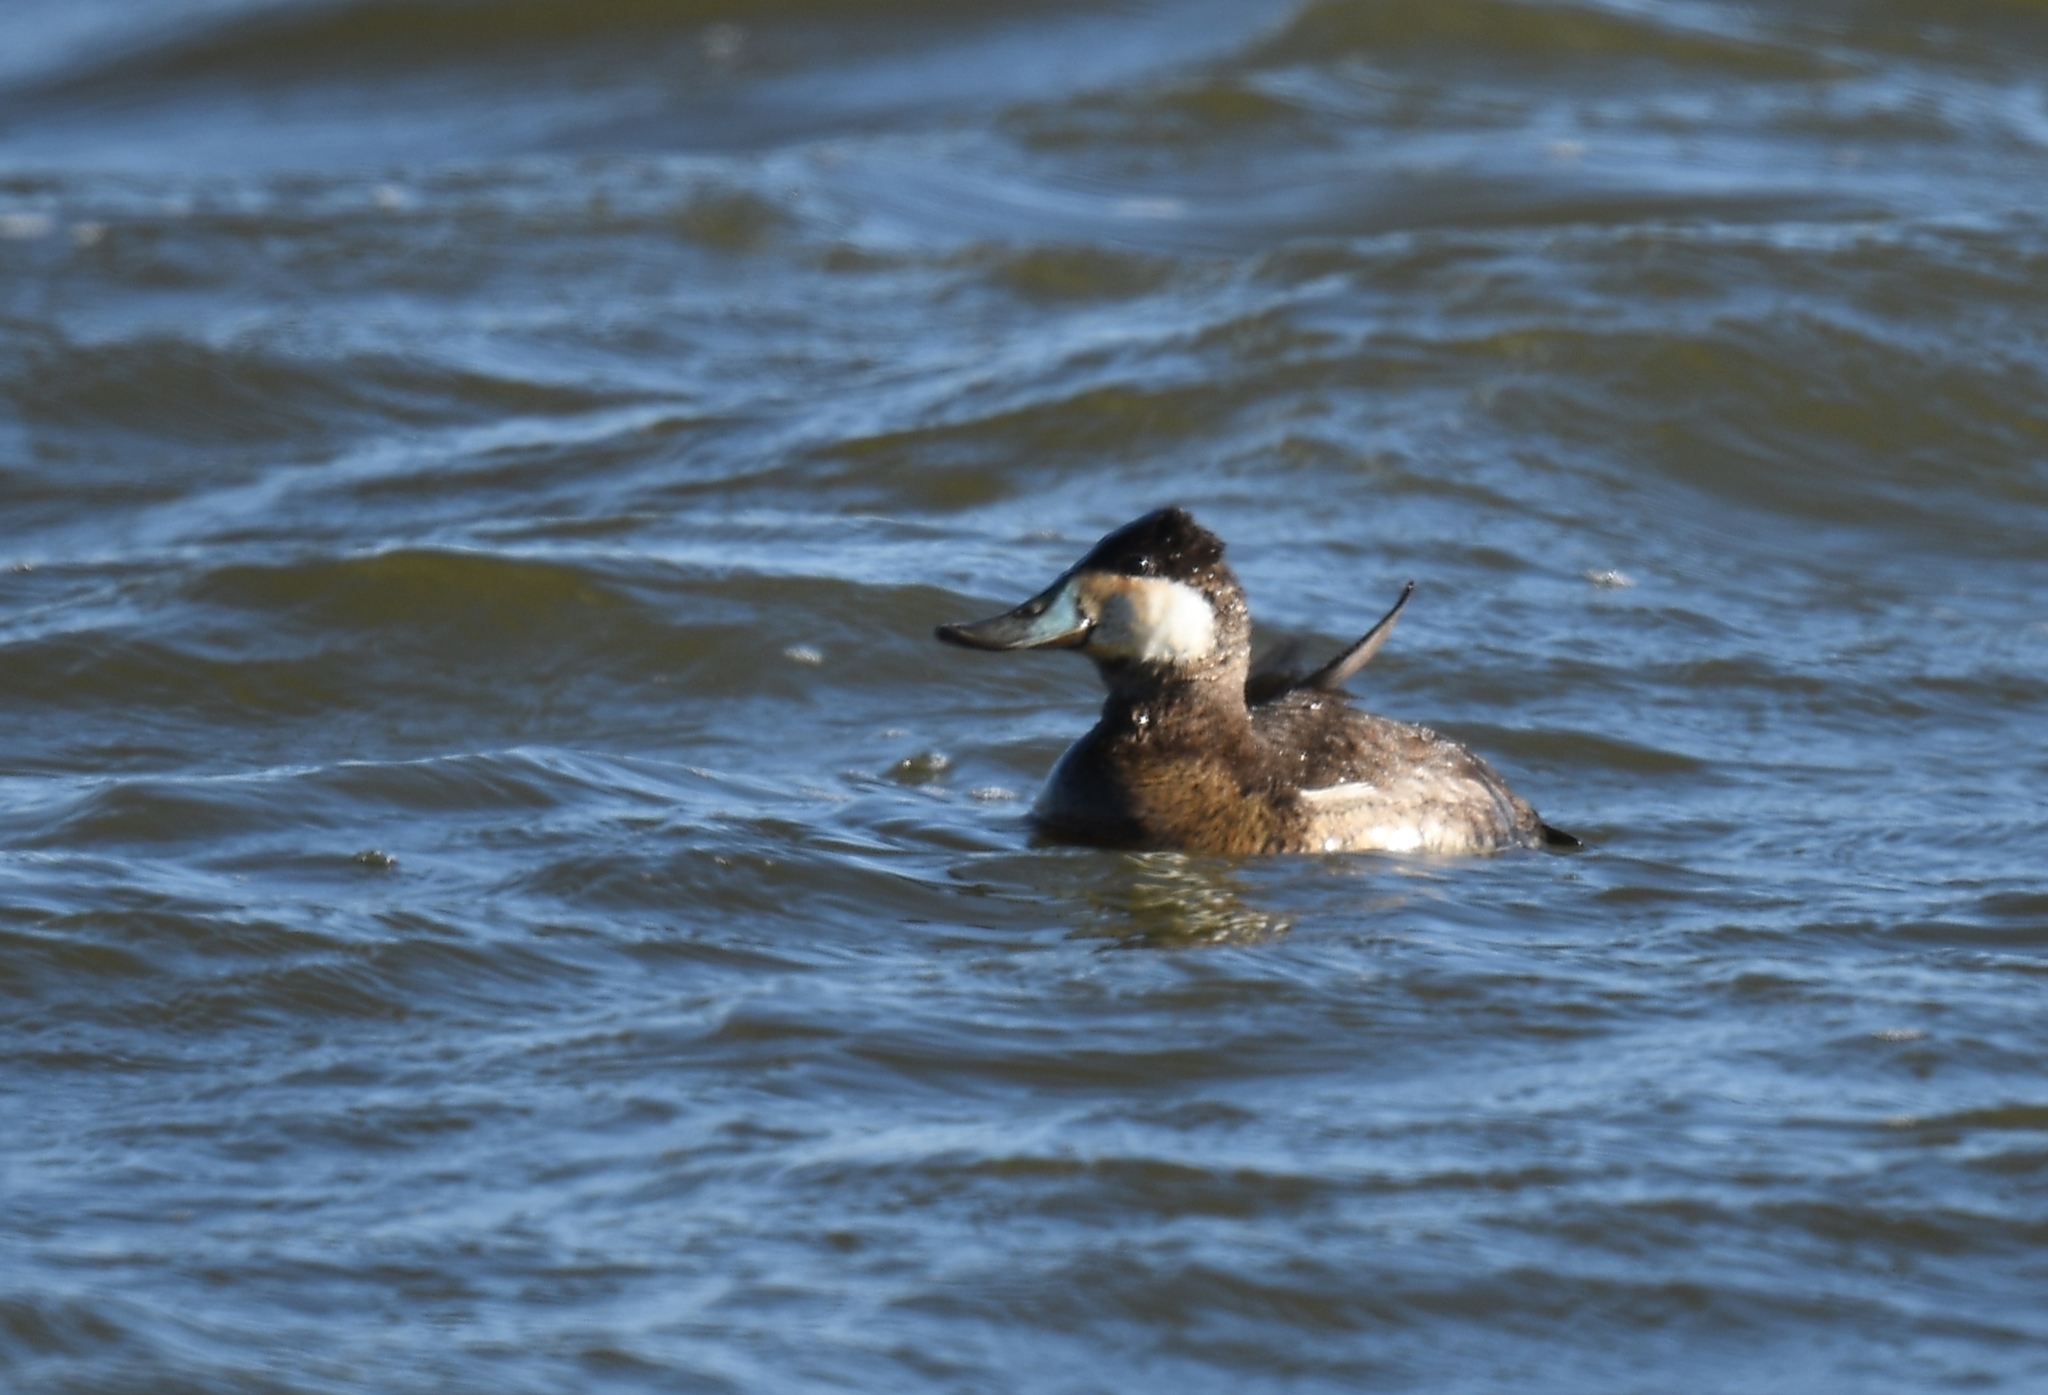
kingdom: Animalia
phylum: Chordata
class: Aves
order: Anseriformes
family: Anatidae
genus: Oxyura
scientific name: Oxyura jamaicensis
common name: Ruddy duck
